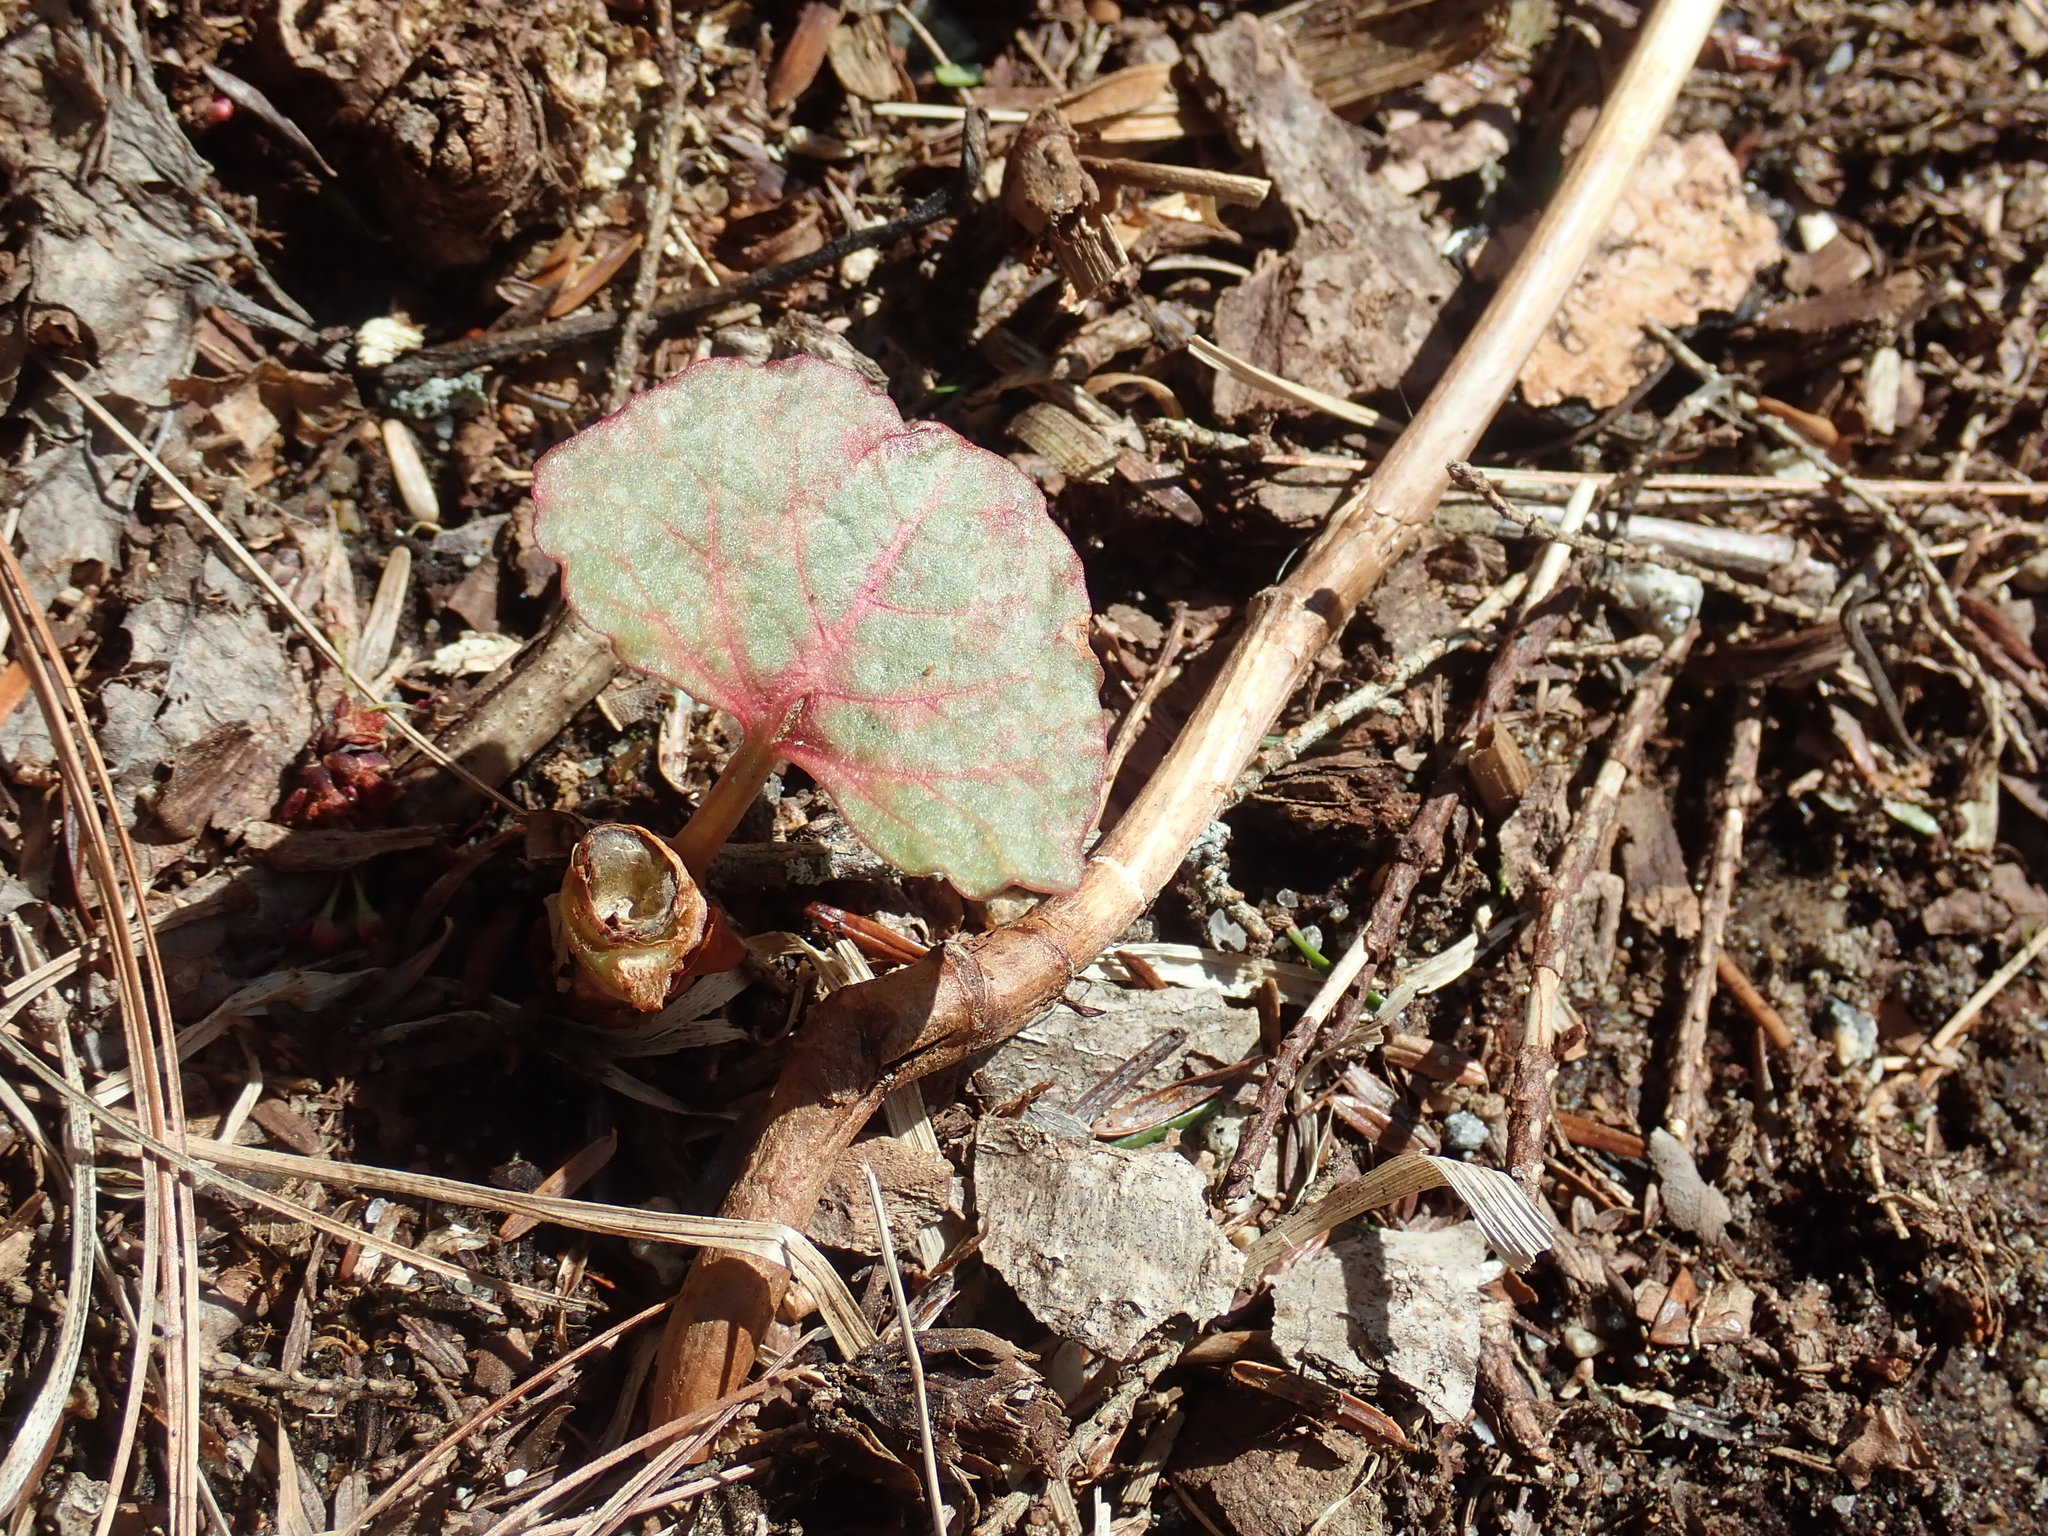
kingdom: Plantae
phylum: Tracheophyta
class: Magnoliopsida
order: Caryophyllales
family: Polygonaceae
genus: Reynoutria
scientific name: Reynoutria
